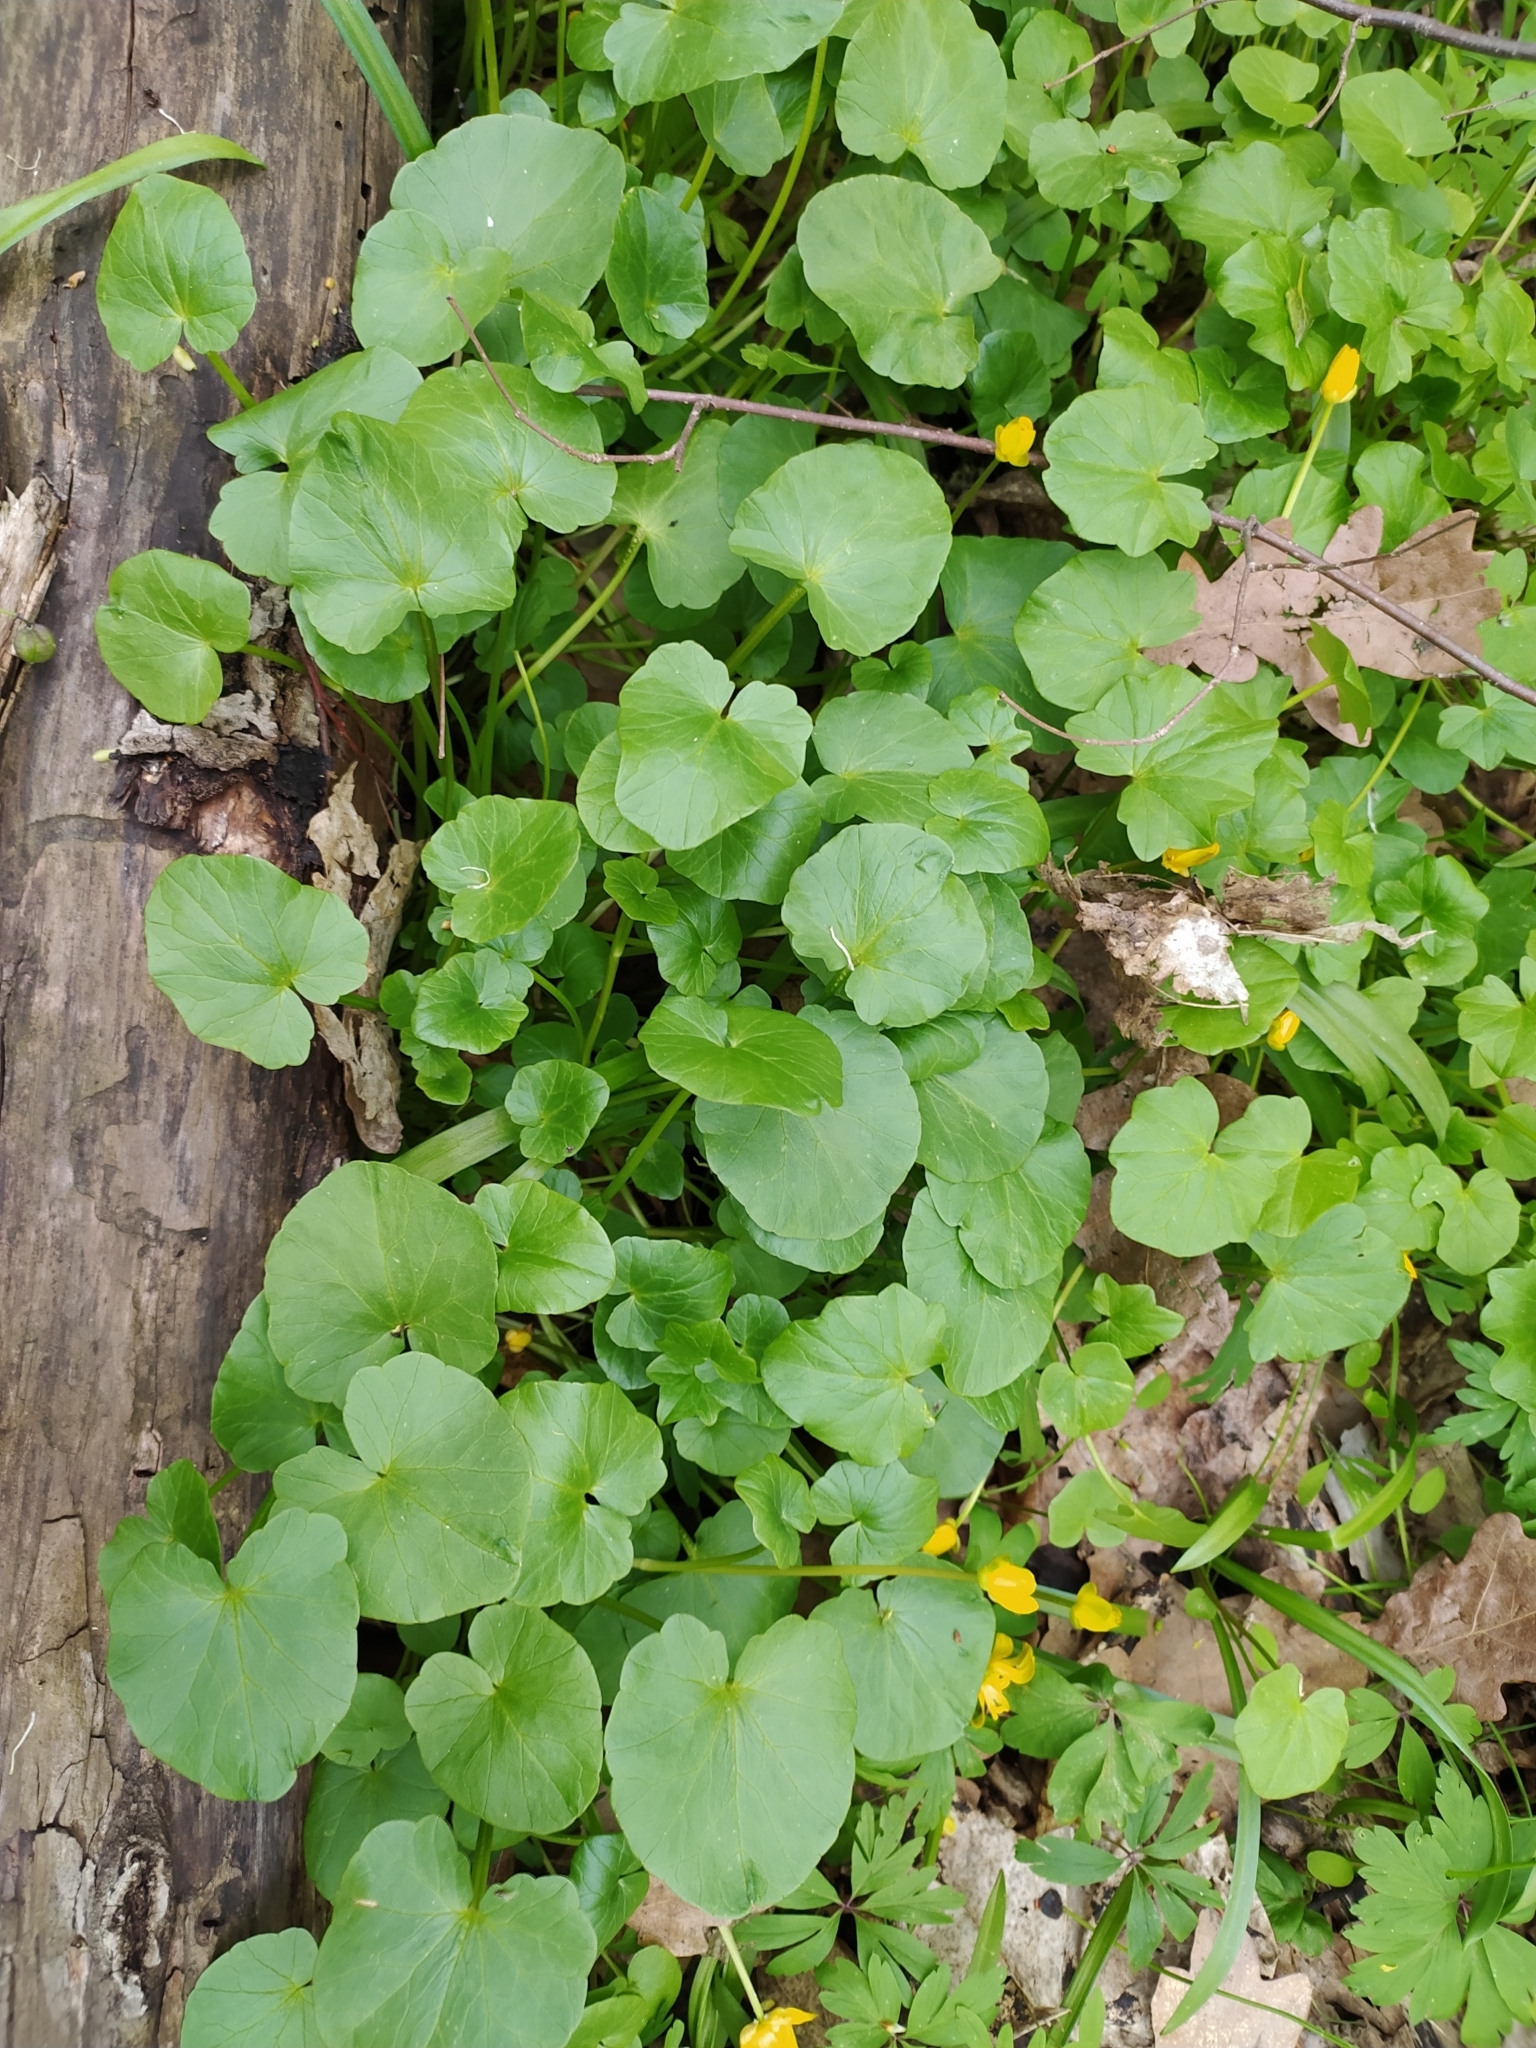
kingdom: Plantae
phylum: Tracheophyta
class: Magnoliopsida
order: Ranunculales
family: Ranunculaceae
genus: Ficaria
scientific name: Ficaria verna
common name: Lesser celandine
